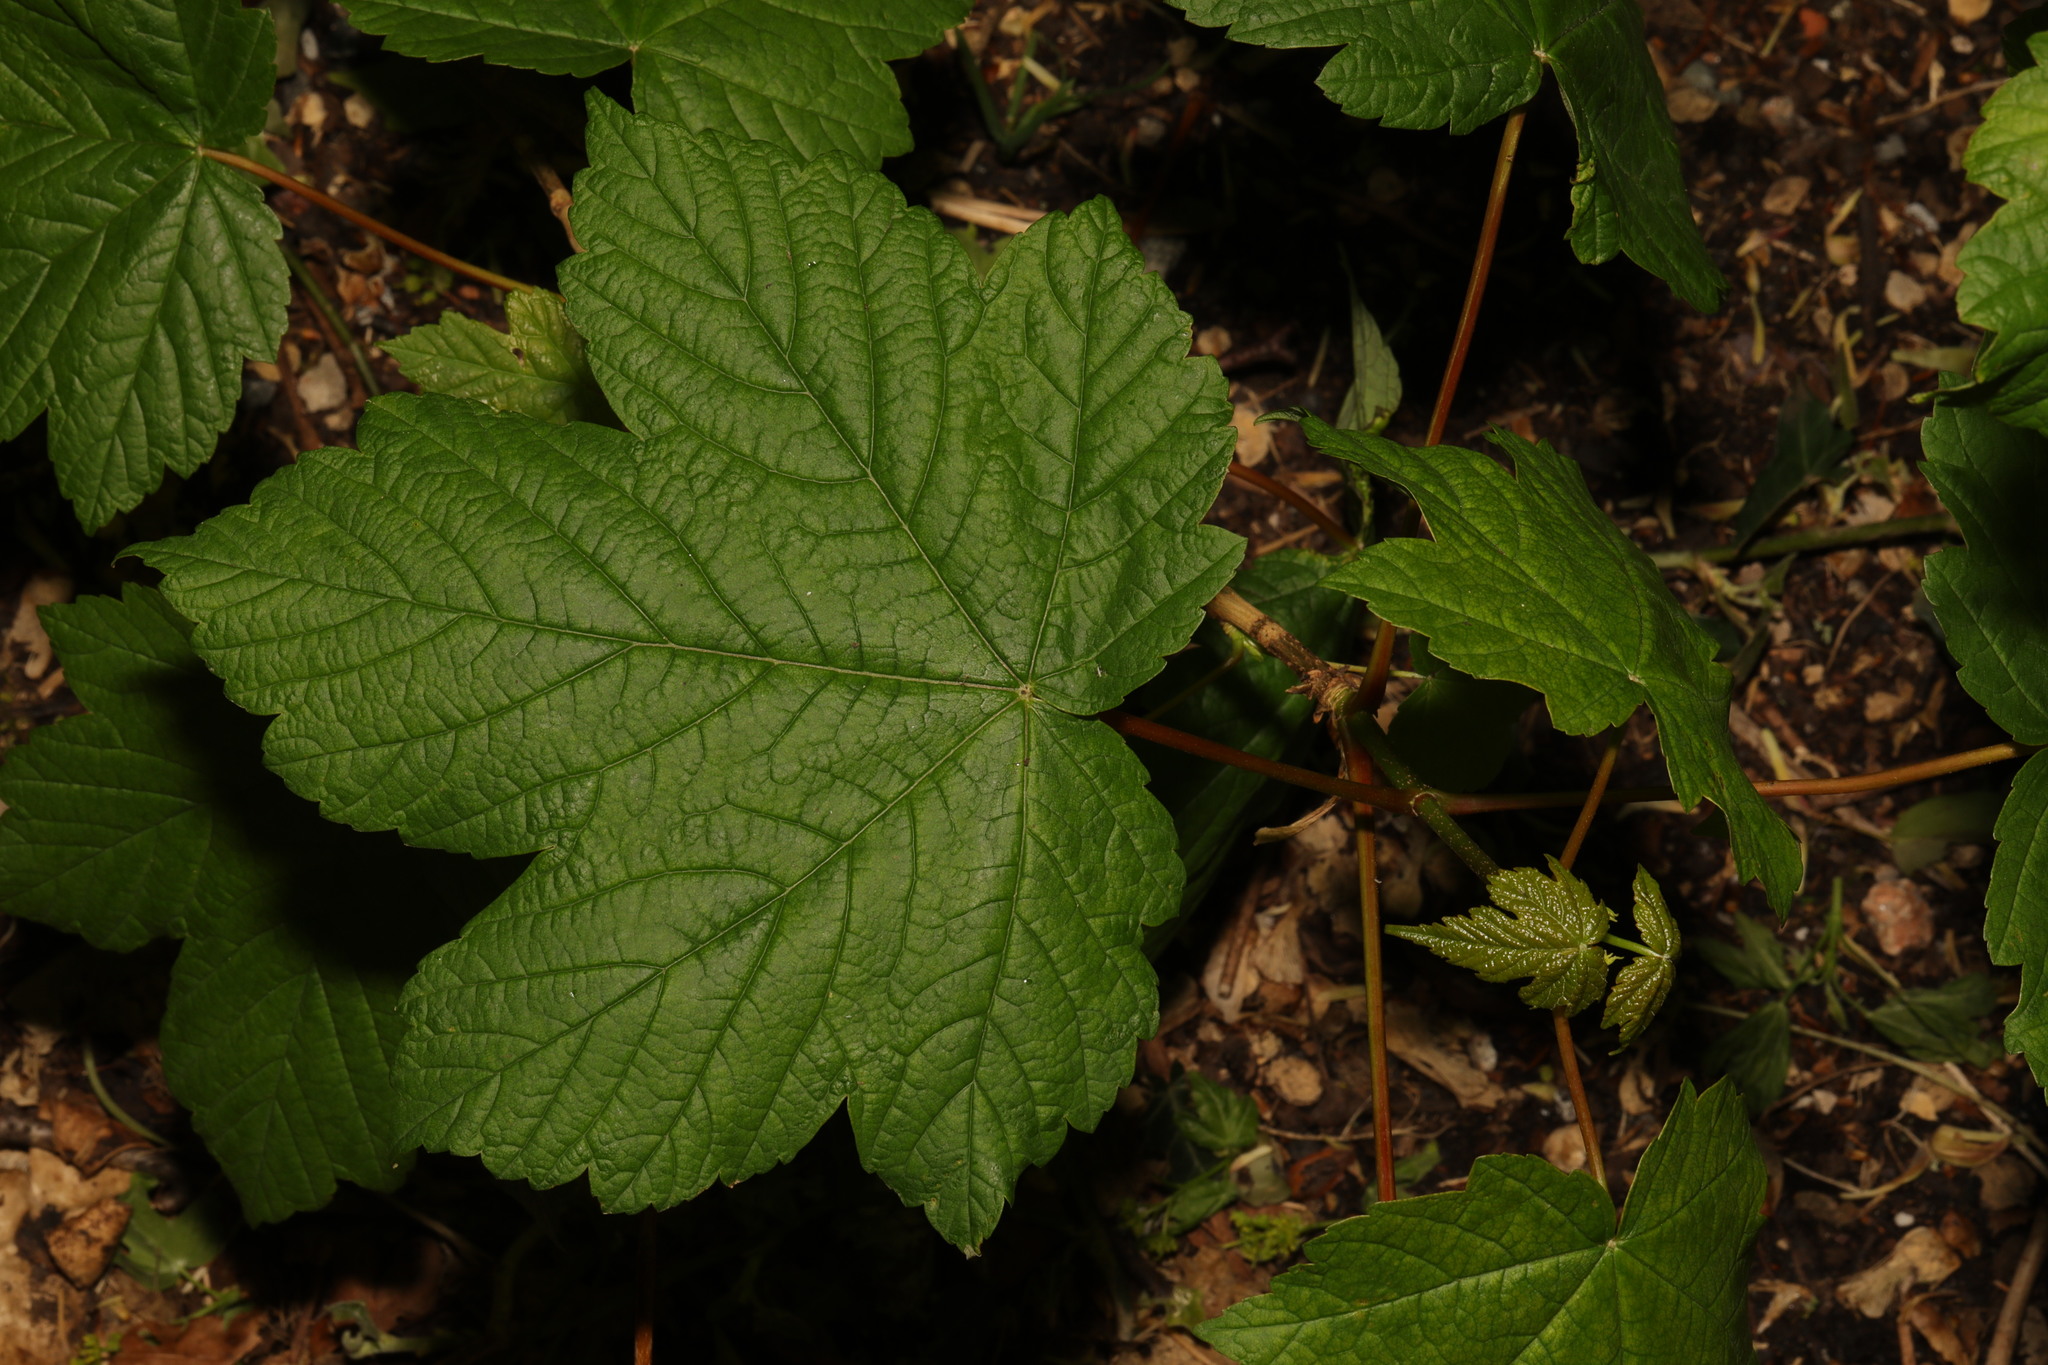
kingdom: Plantae
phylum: Tracheophyta
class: Magnoliopsida
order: Sapindales
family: Sapindaceae
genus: Acer
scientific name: Acer pseudoplatanus
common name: Sycamore
